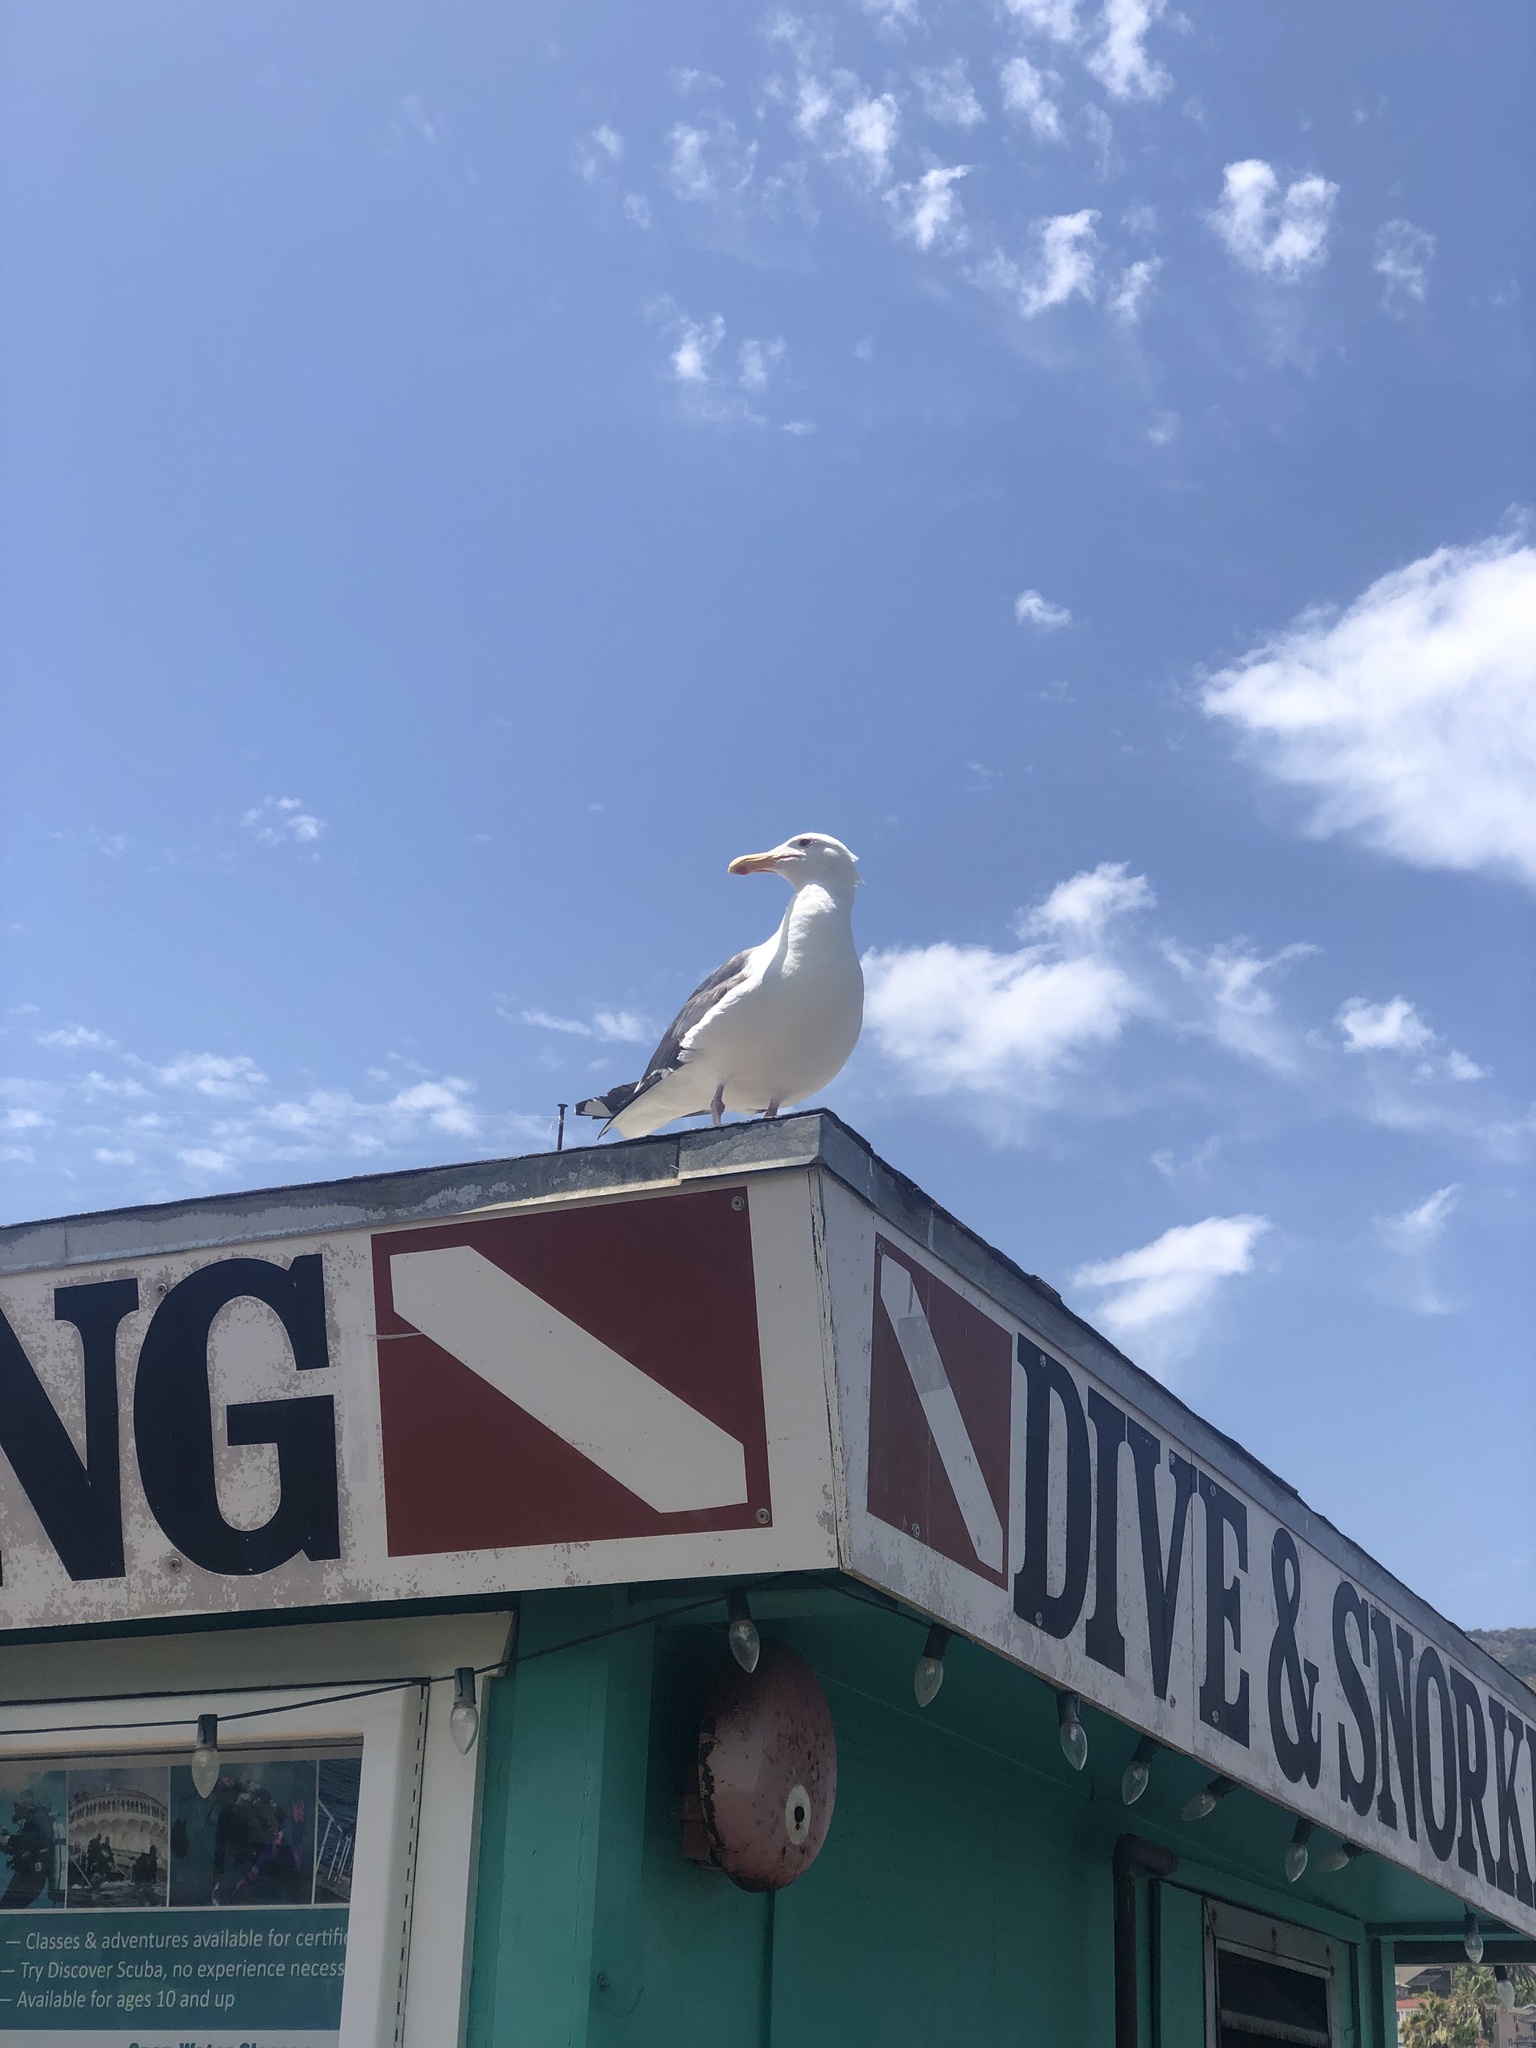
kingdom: Animalia
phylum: Chordata
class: Aves
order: Charadriiformes
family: Laridae
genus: Larus
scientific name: Larus occidentalis
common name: Western gull
